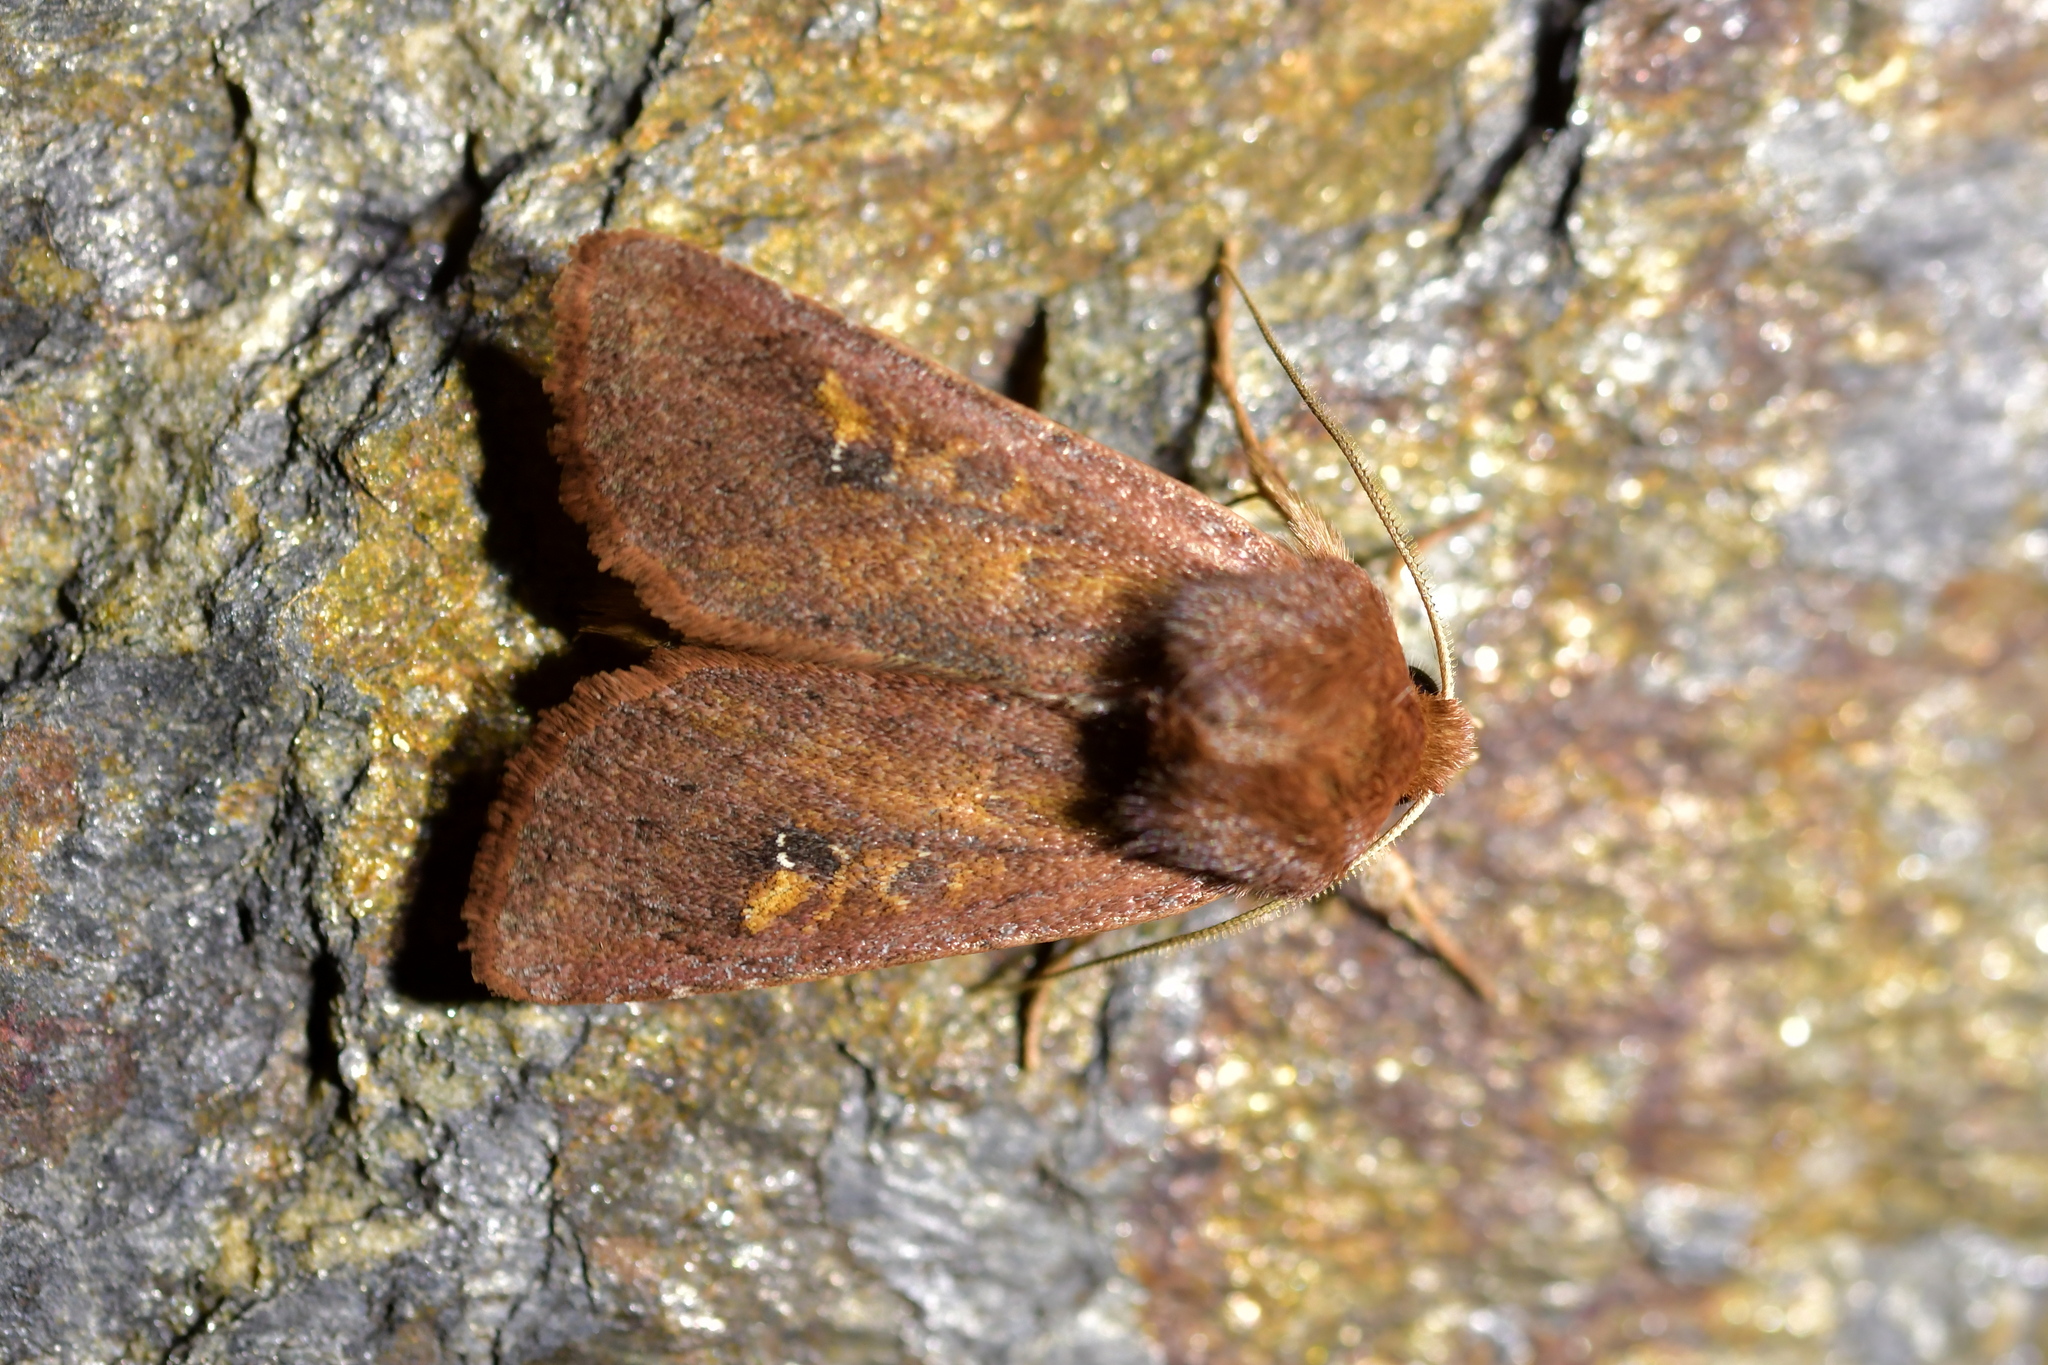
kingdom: Animalia
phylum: Arthropoda
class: Insecta
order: Lepidoptera
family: Noctuidae
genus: Ichneutica
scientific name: Ichneutica
